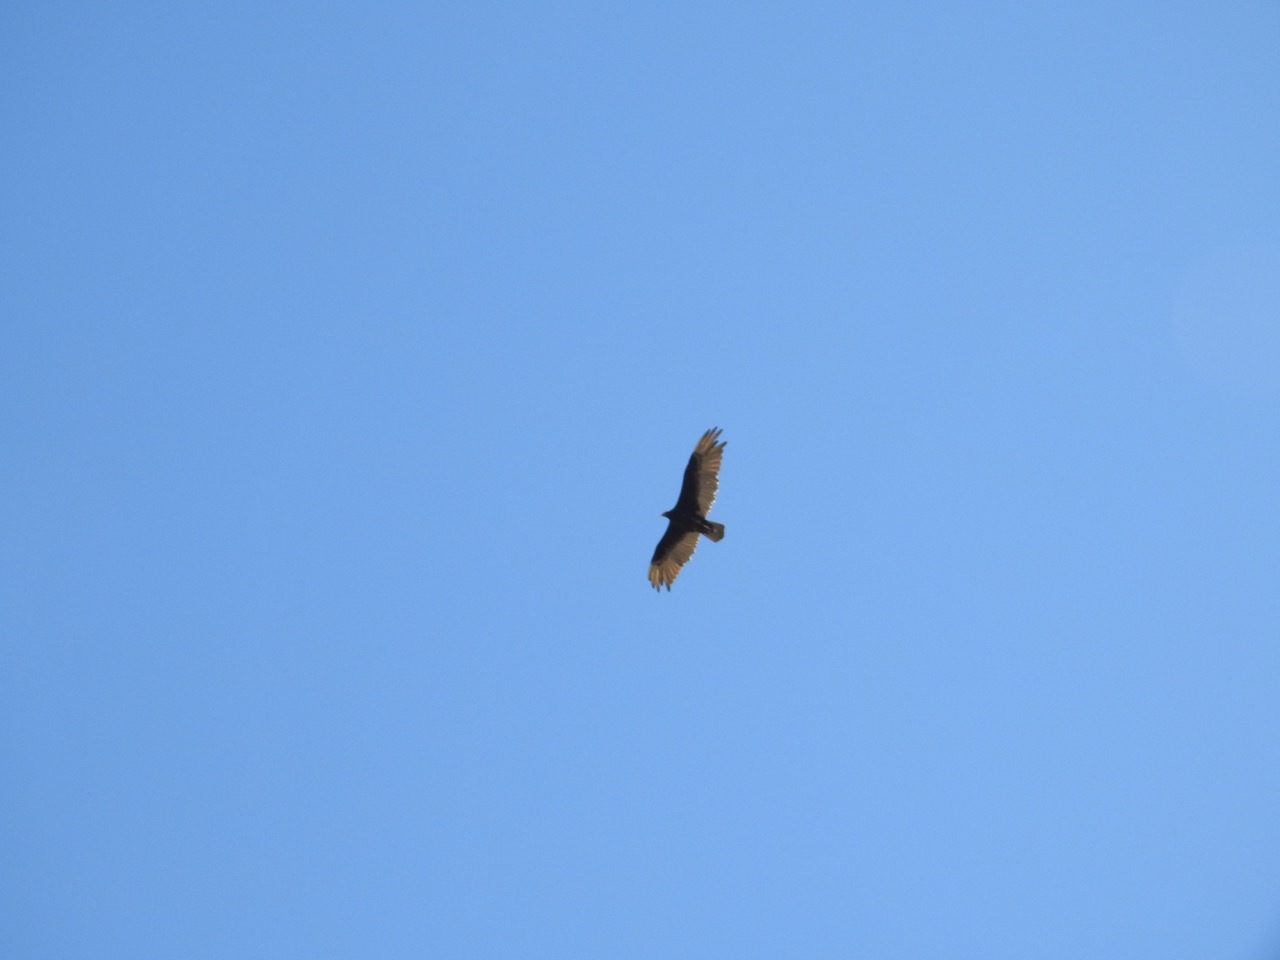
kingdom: Animalia
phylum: Chordata
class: Aves
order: Accipitriformes
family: Cathartidae
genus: Cathartes
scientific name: Cathartes aura
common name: Turkey vulture
